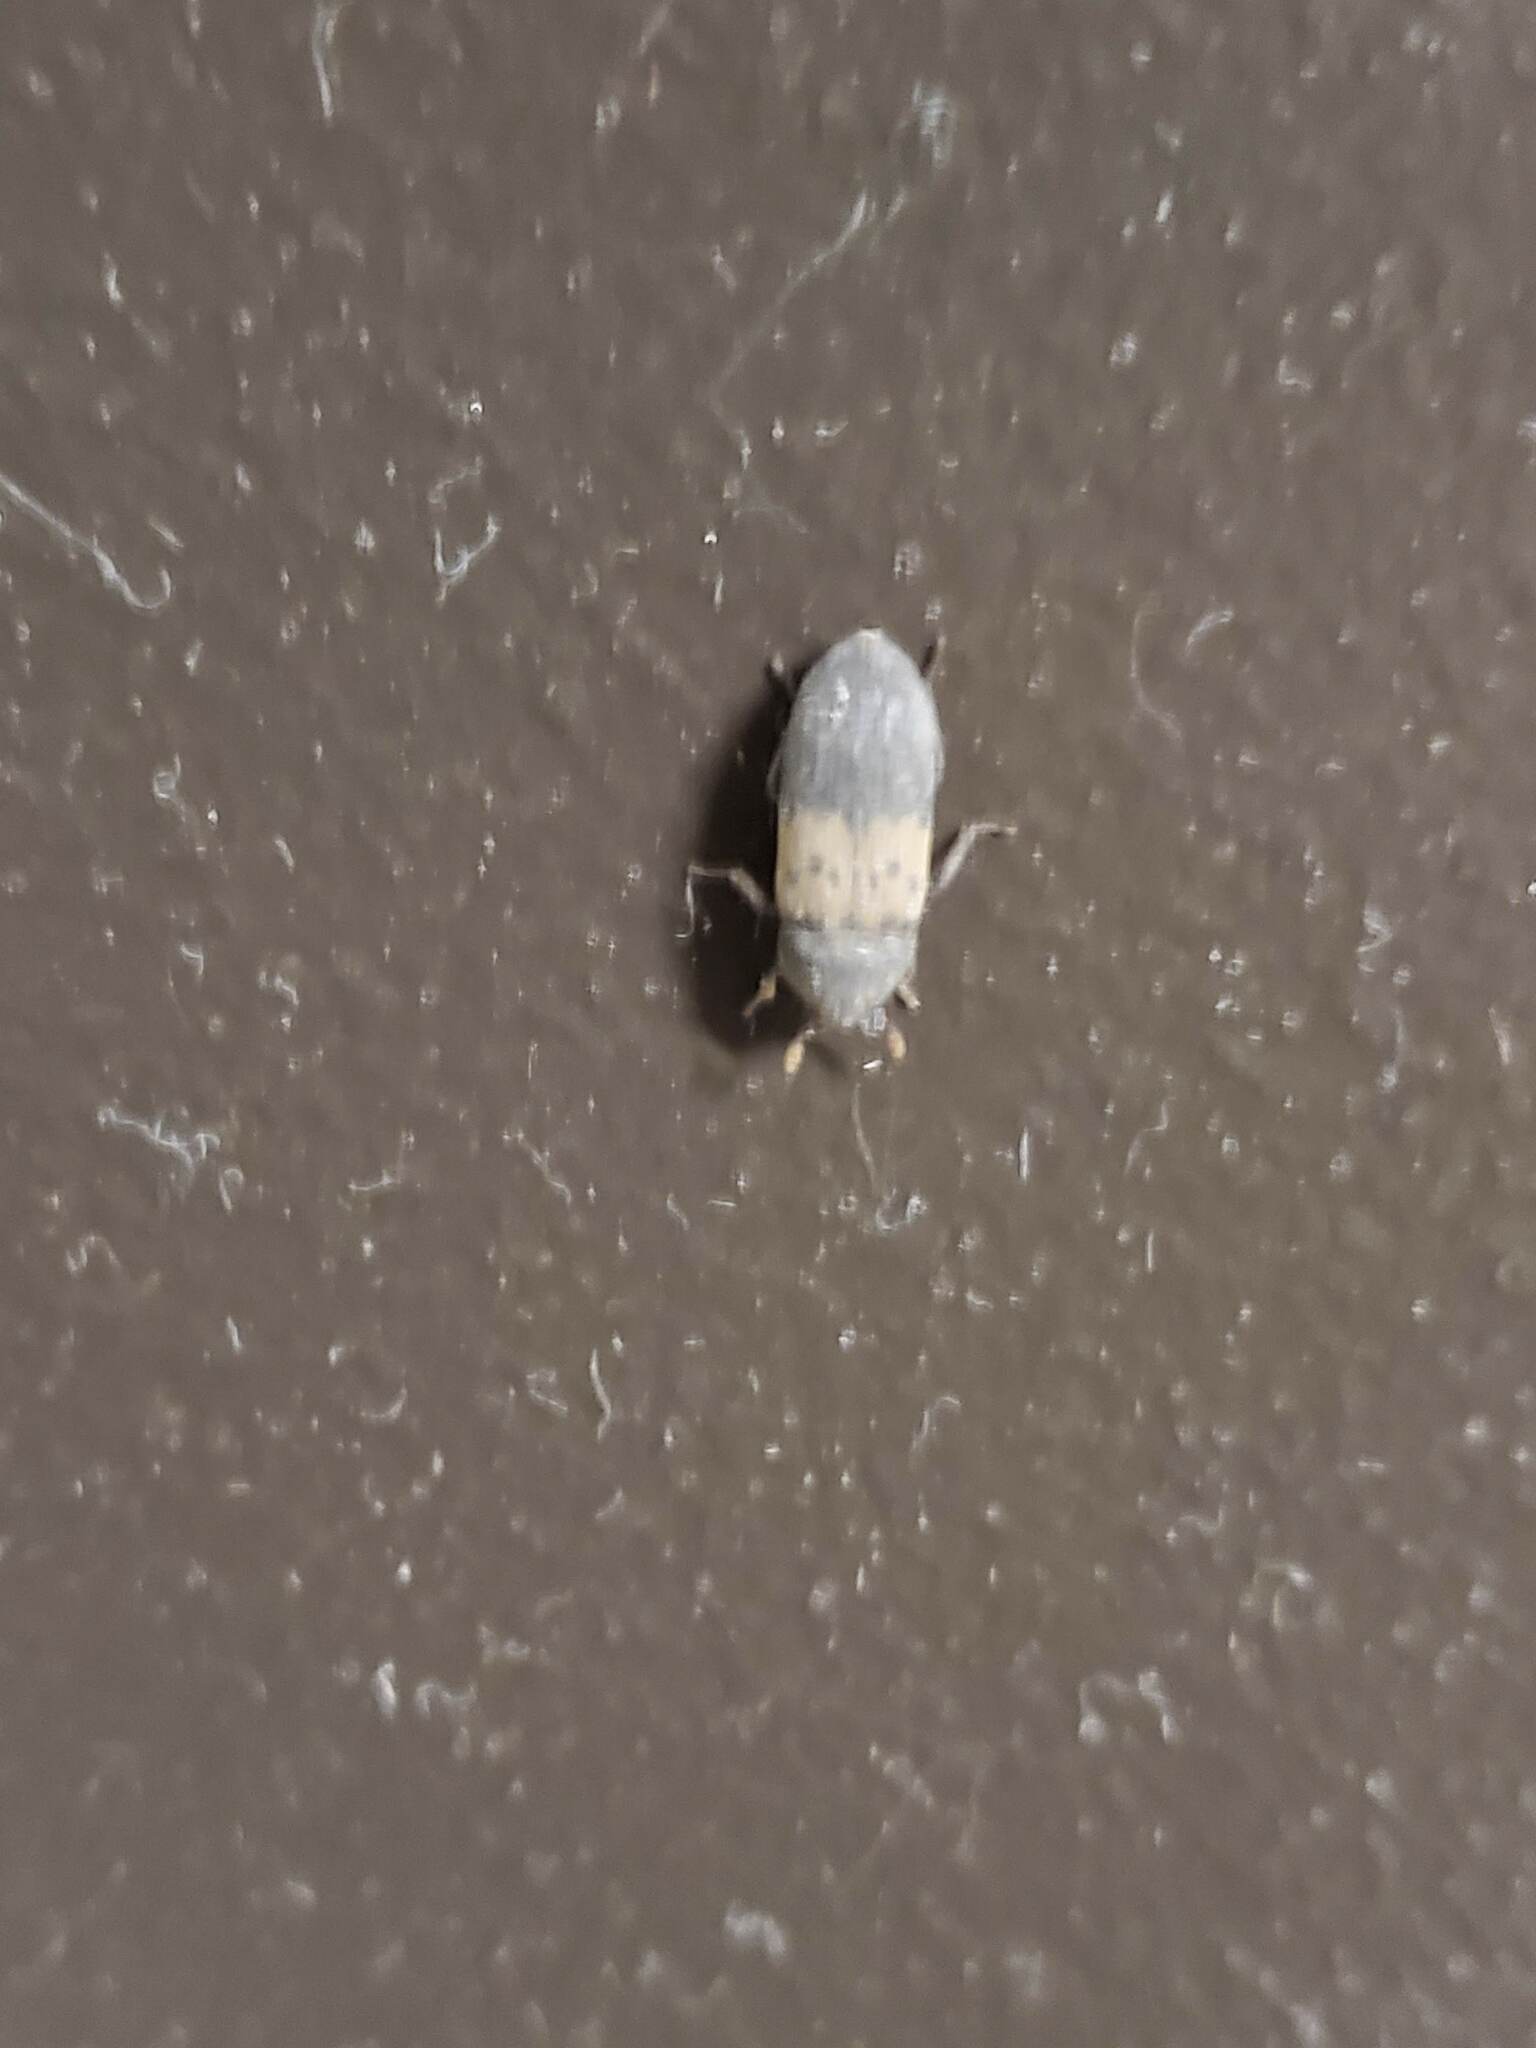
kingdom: Animalia
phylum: Arthropoda
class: Insecta
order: Coleoptera
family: Dermestidae
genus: Dermestes
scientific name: Dermestes lardarius
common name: Larder beetle
